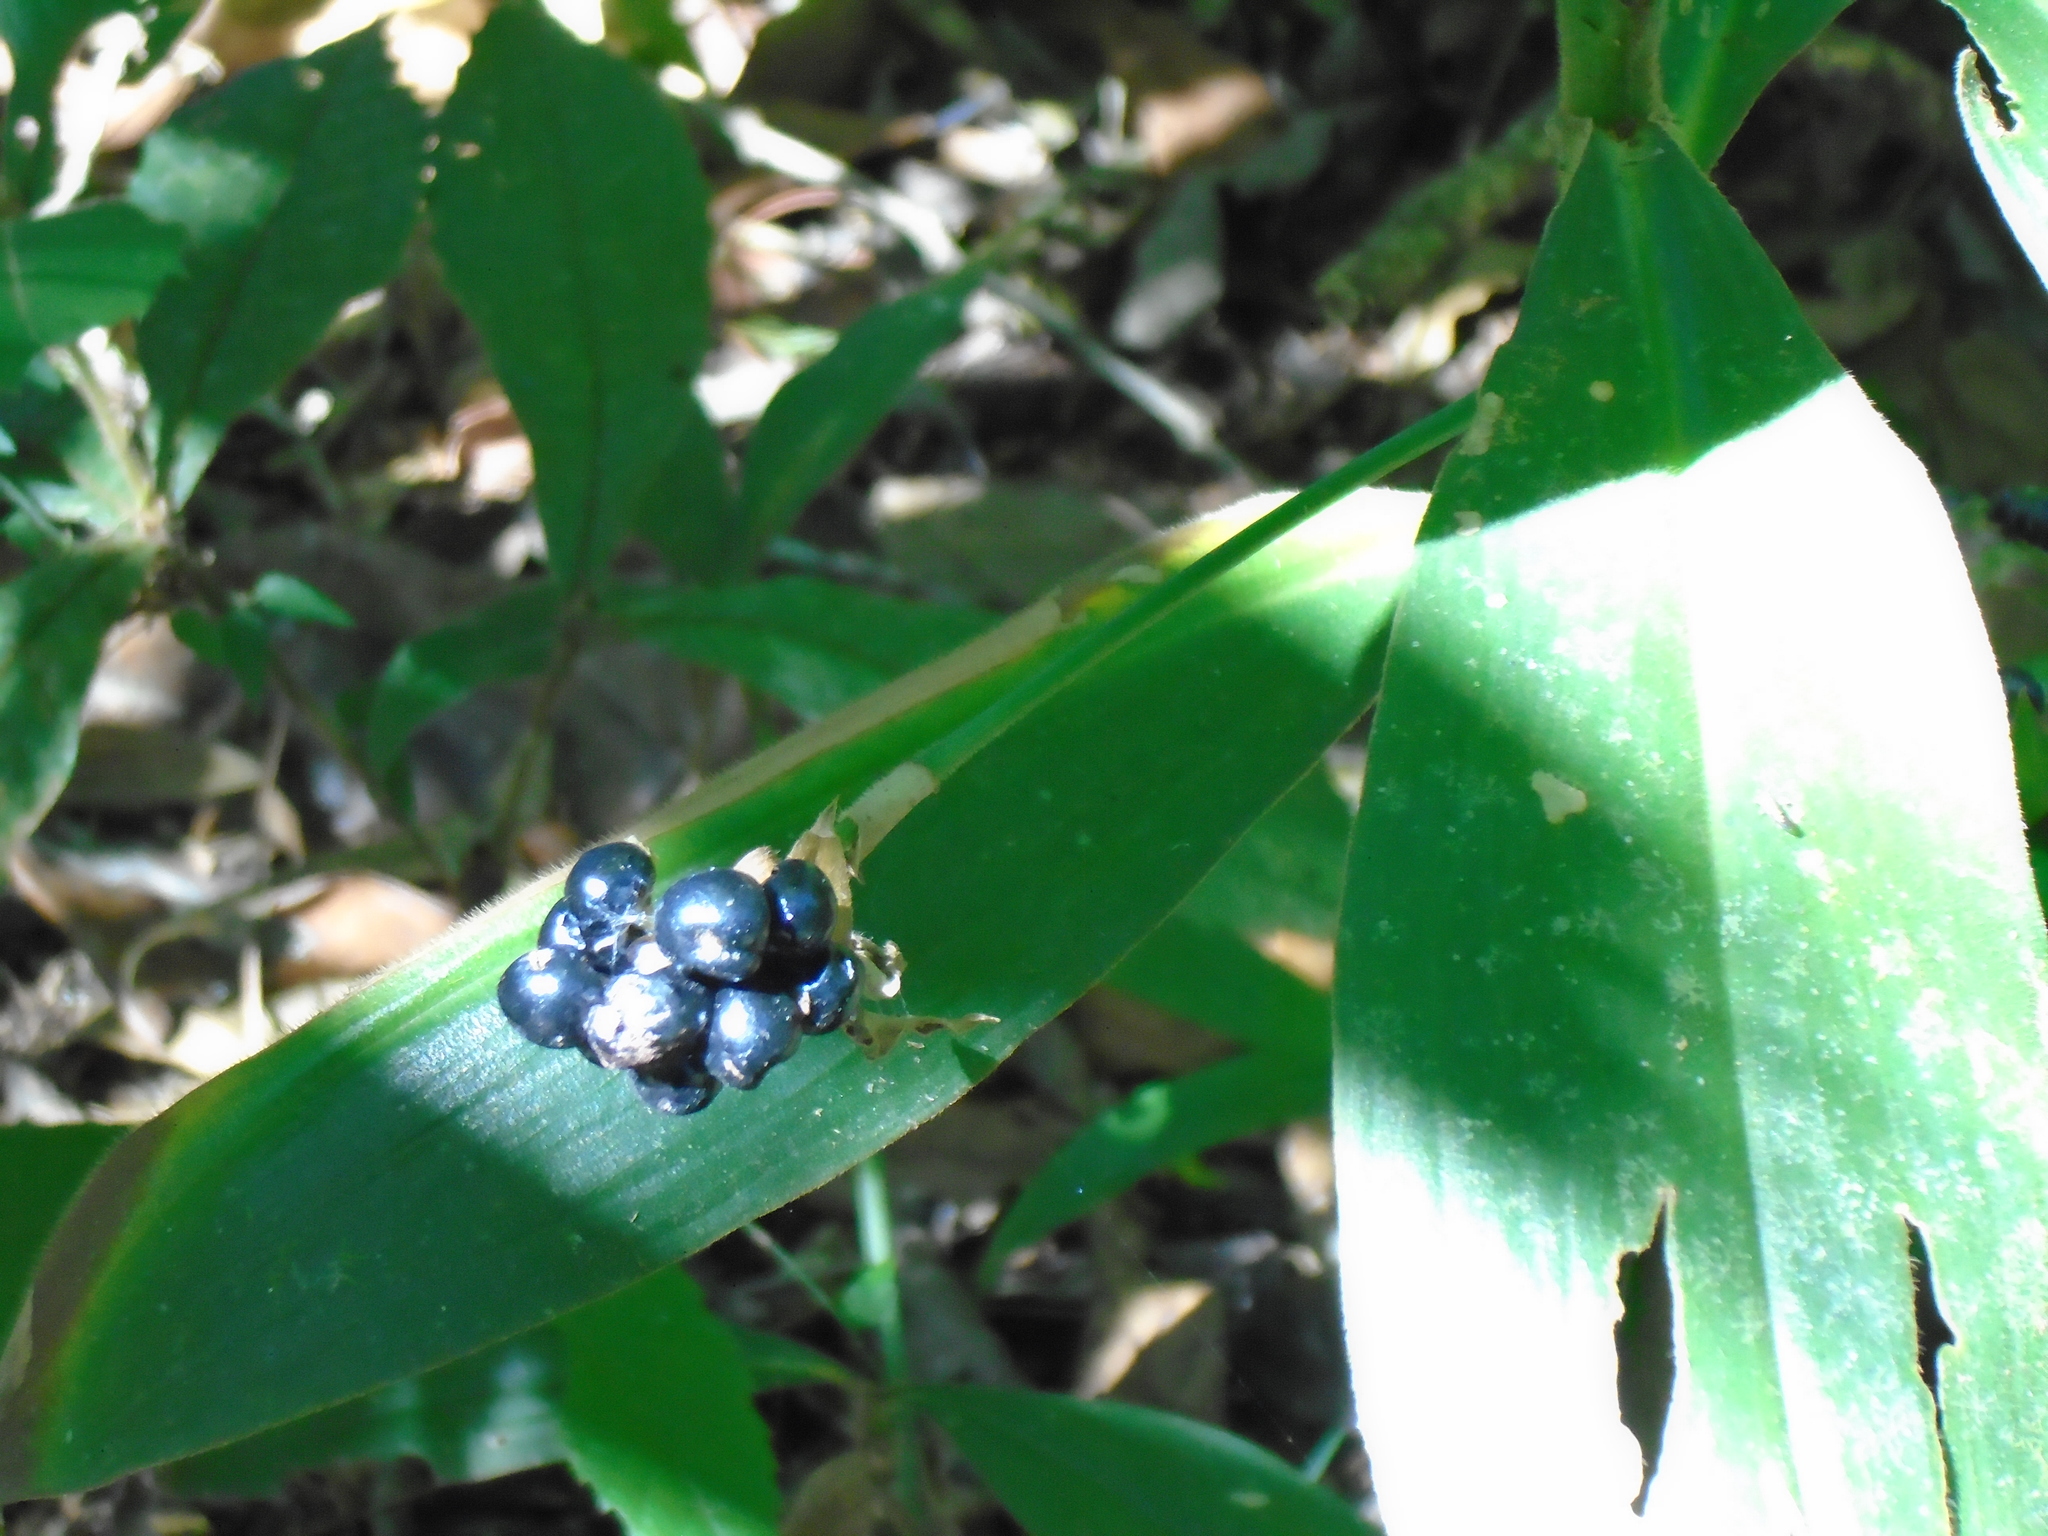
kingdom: Plantae
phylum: Tracheophyta
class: Liliopsida
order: Commelinales
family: Commelinaceae
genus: Tradescantia
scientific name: Tradescantia zanonia
